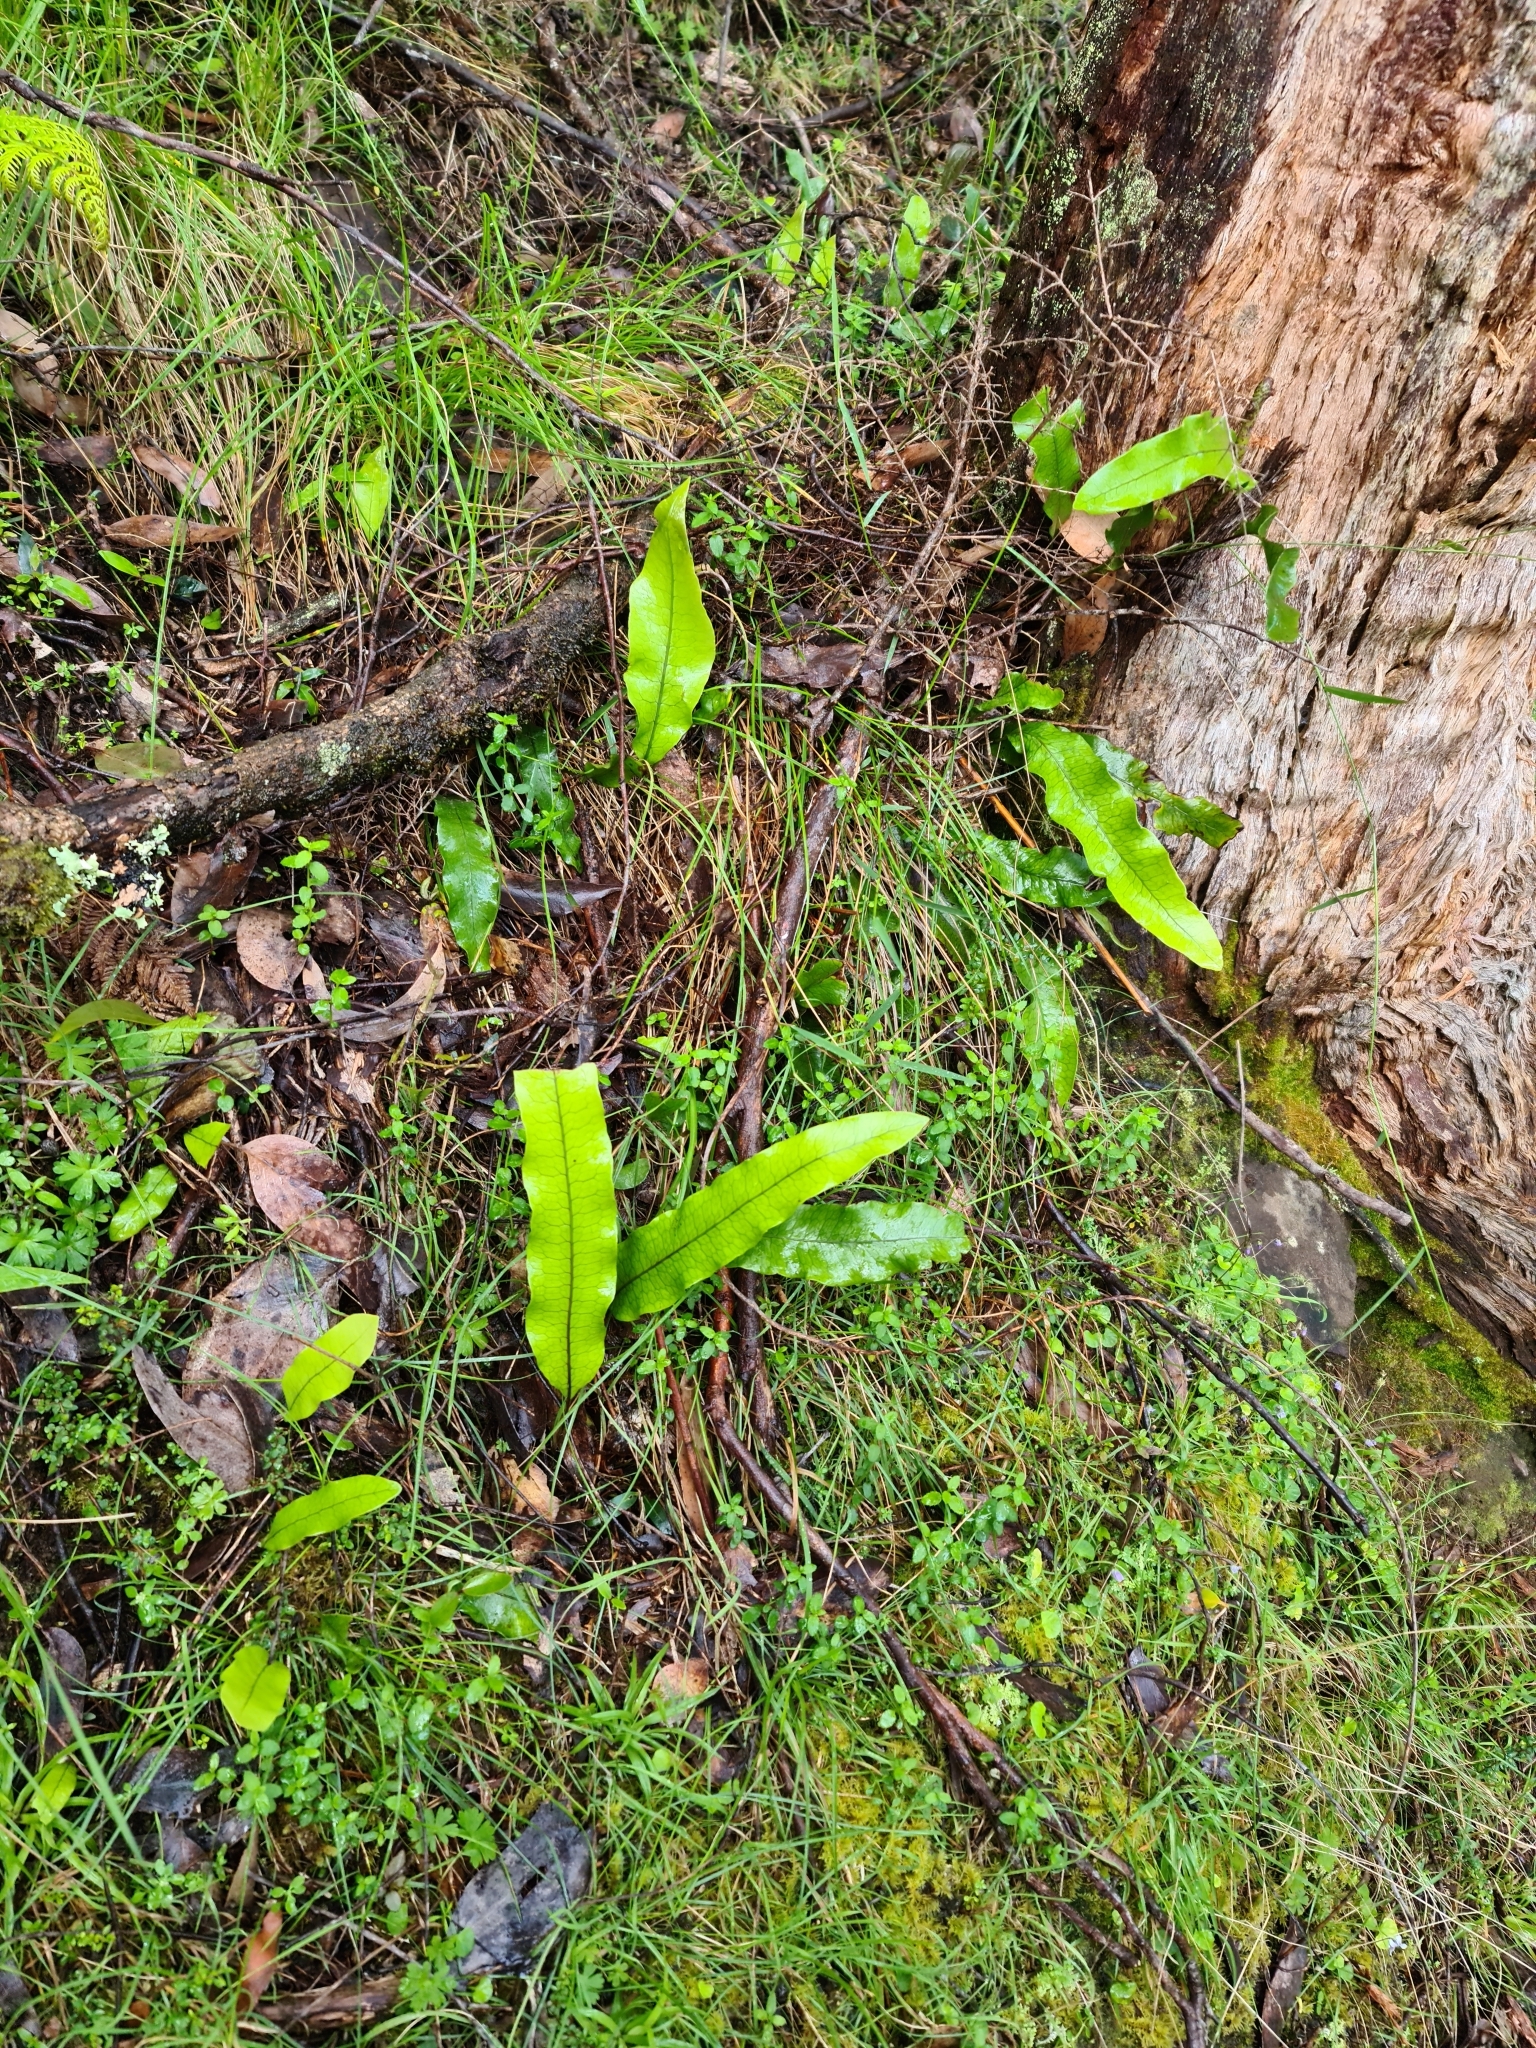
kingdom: Plantae
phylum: Tracheophyta
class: Polypodiopsida
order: Polypodiales
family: Polypodiaceae
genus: Lecanopteris
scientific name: Lecanopteris pustulata
